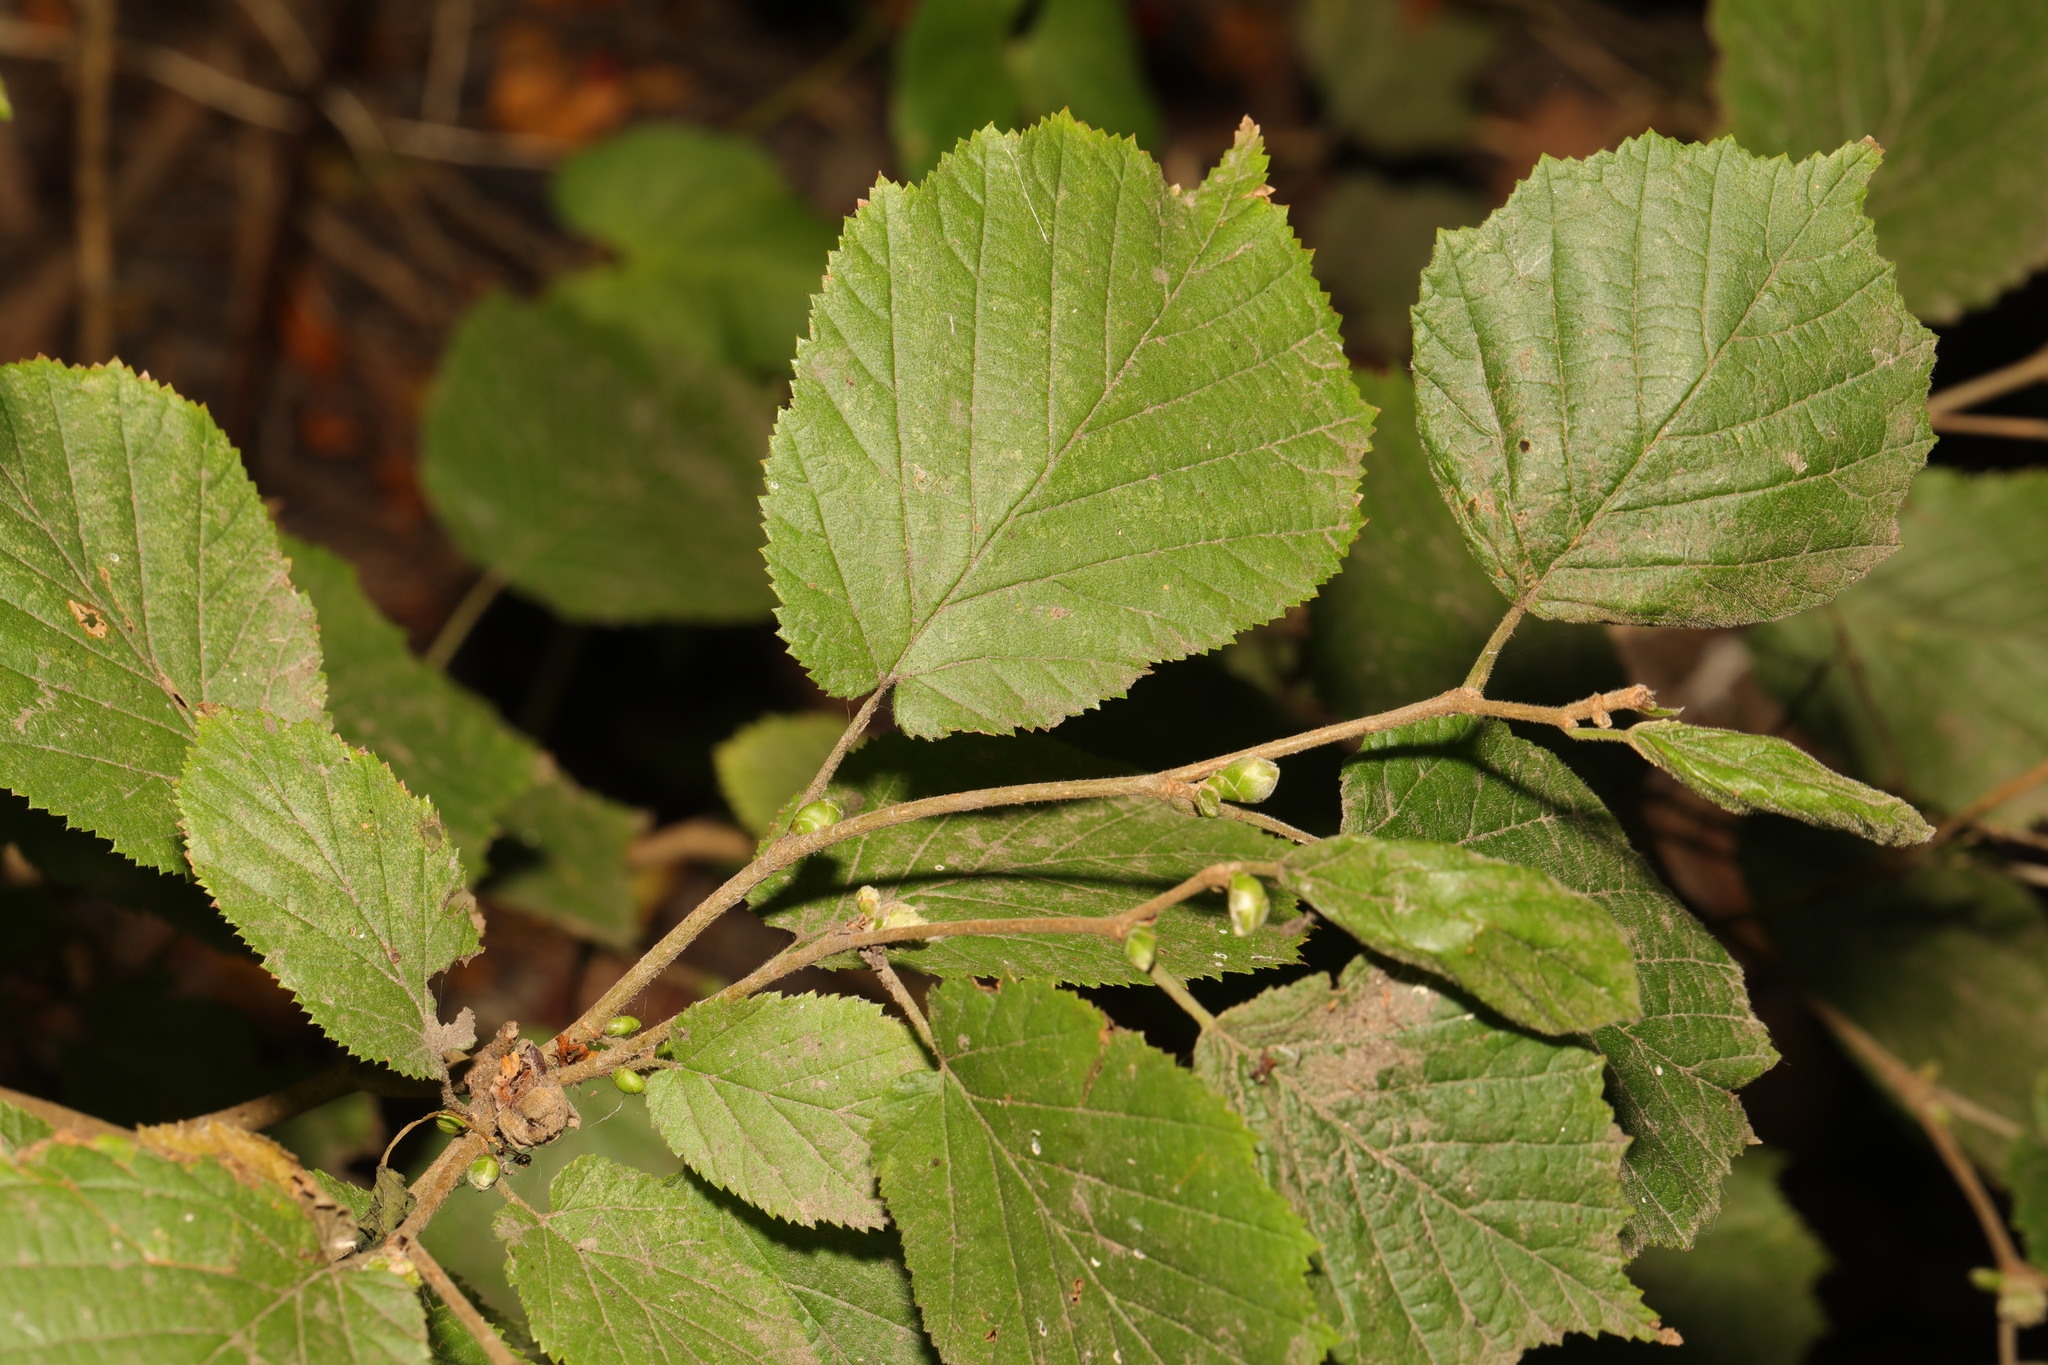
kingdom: Plantae
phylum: Tracheophyta
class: Magnoliopsida
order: Fagales
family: Betulaceae
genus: Corylus
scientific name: Corylus avellana
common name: European hazel
